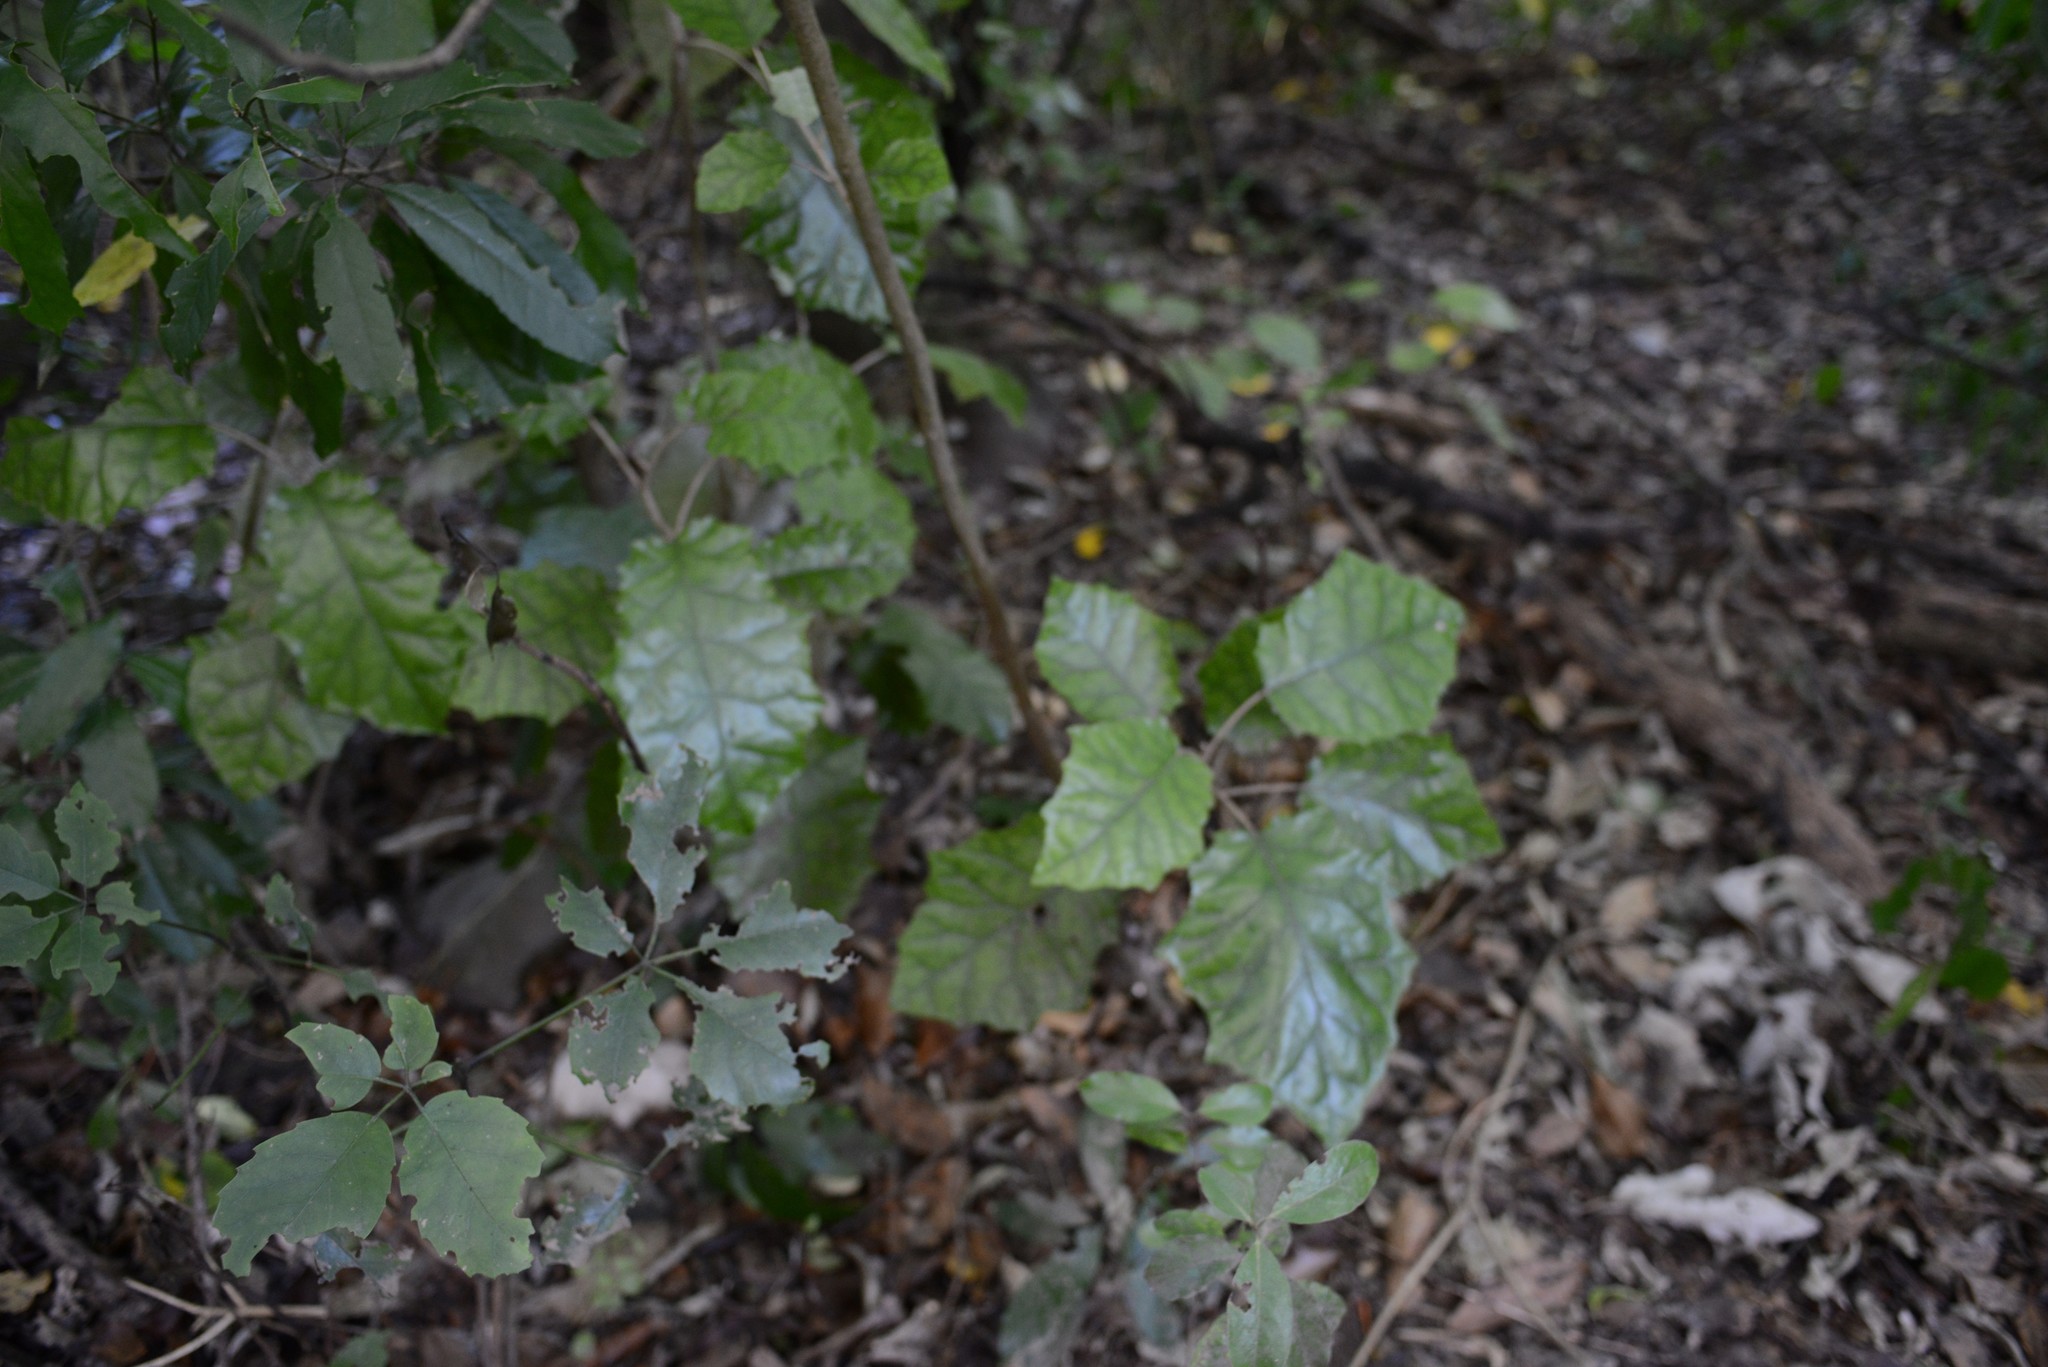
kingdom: Plantae
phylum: Tracheophyta
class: Magnoliopsida
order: Asterales
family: Asteraceae
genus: Brachyglottis
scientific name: Brachyglottis repanda
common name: Hedge ragwort
